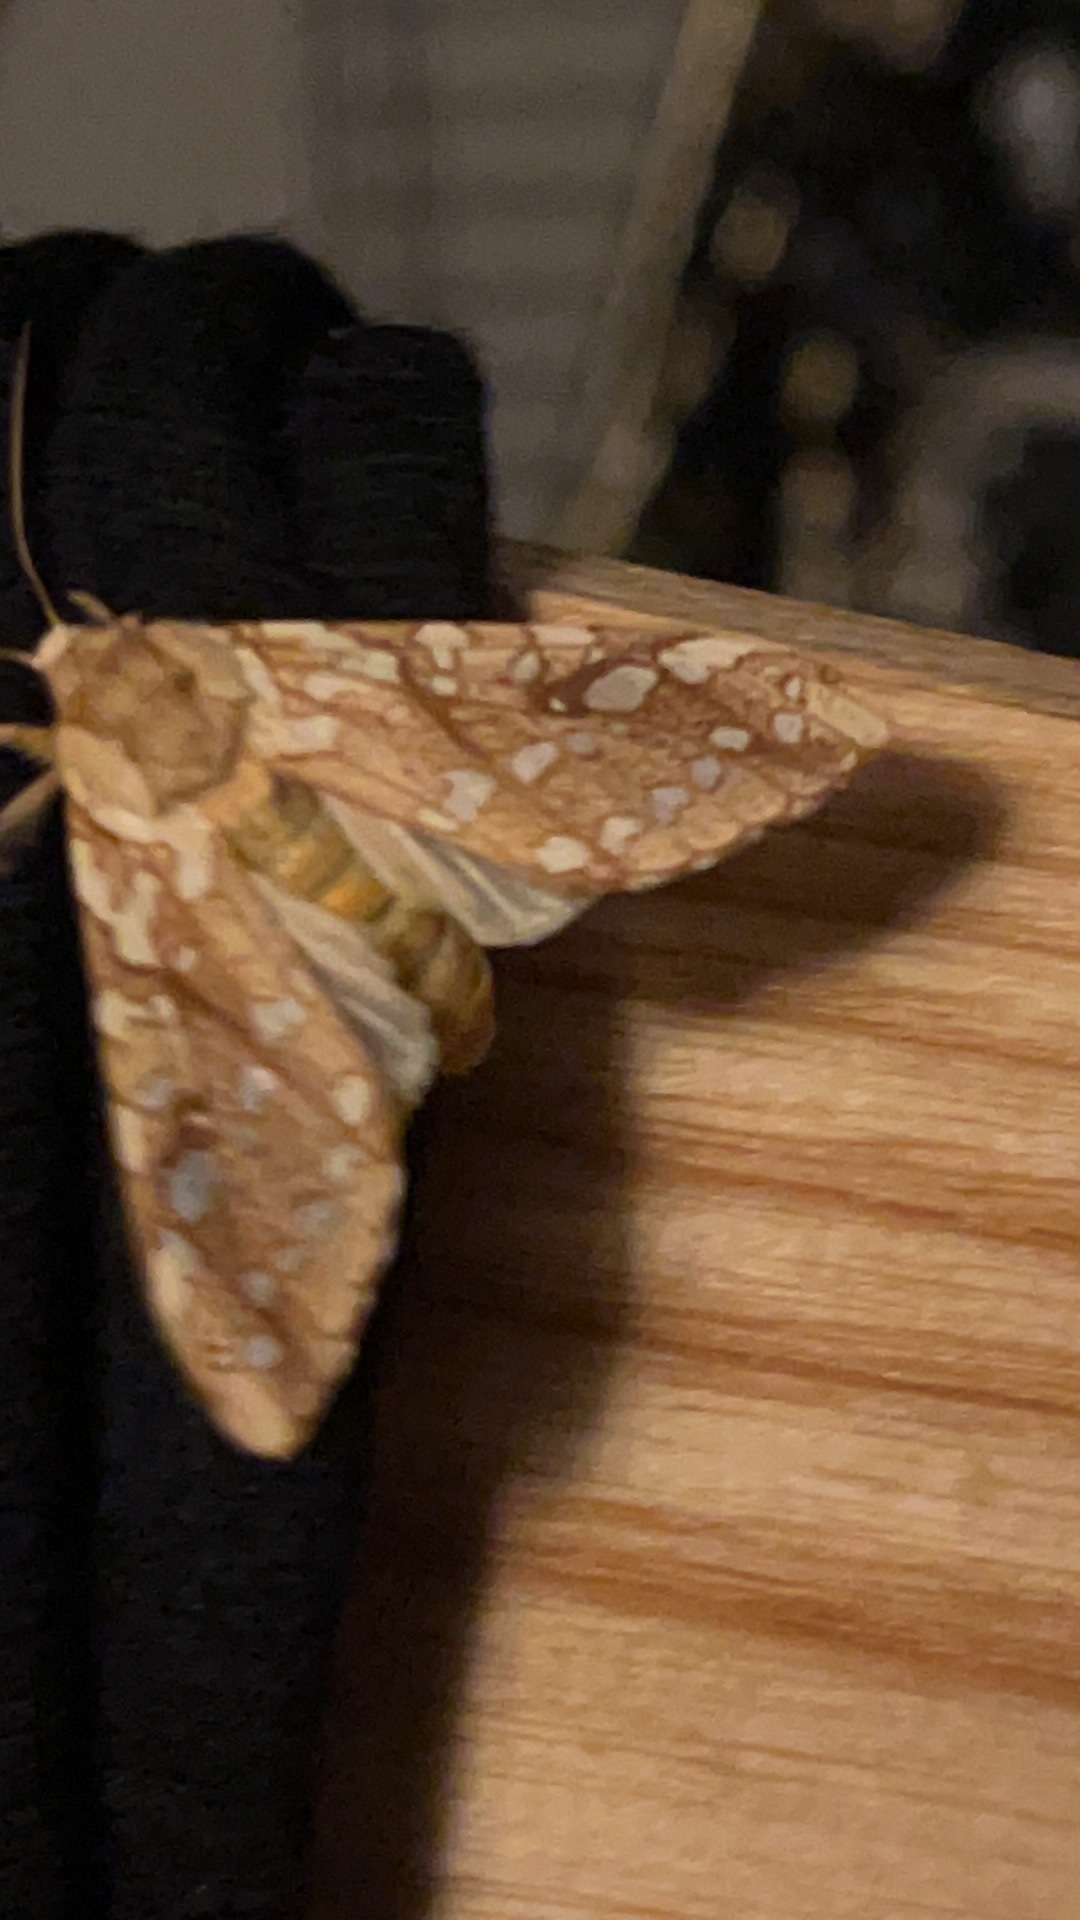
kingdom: Animalia
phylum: Arthropoda
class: Insecta
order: Lepidoptera
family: Erebidae
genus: Lophocampa
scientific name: Lophocampa caryae
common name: Hickory tussock moth
